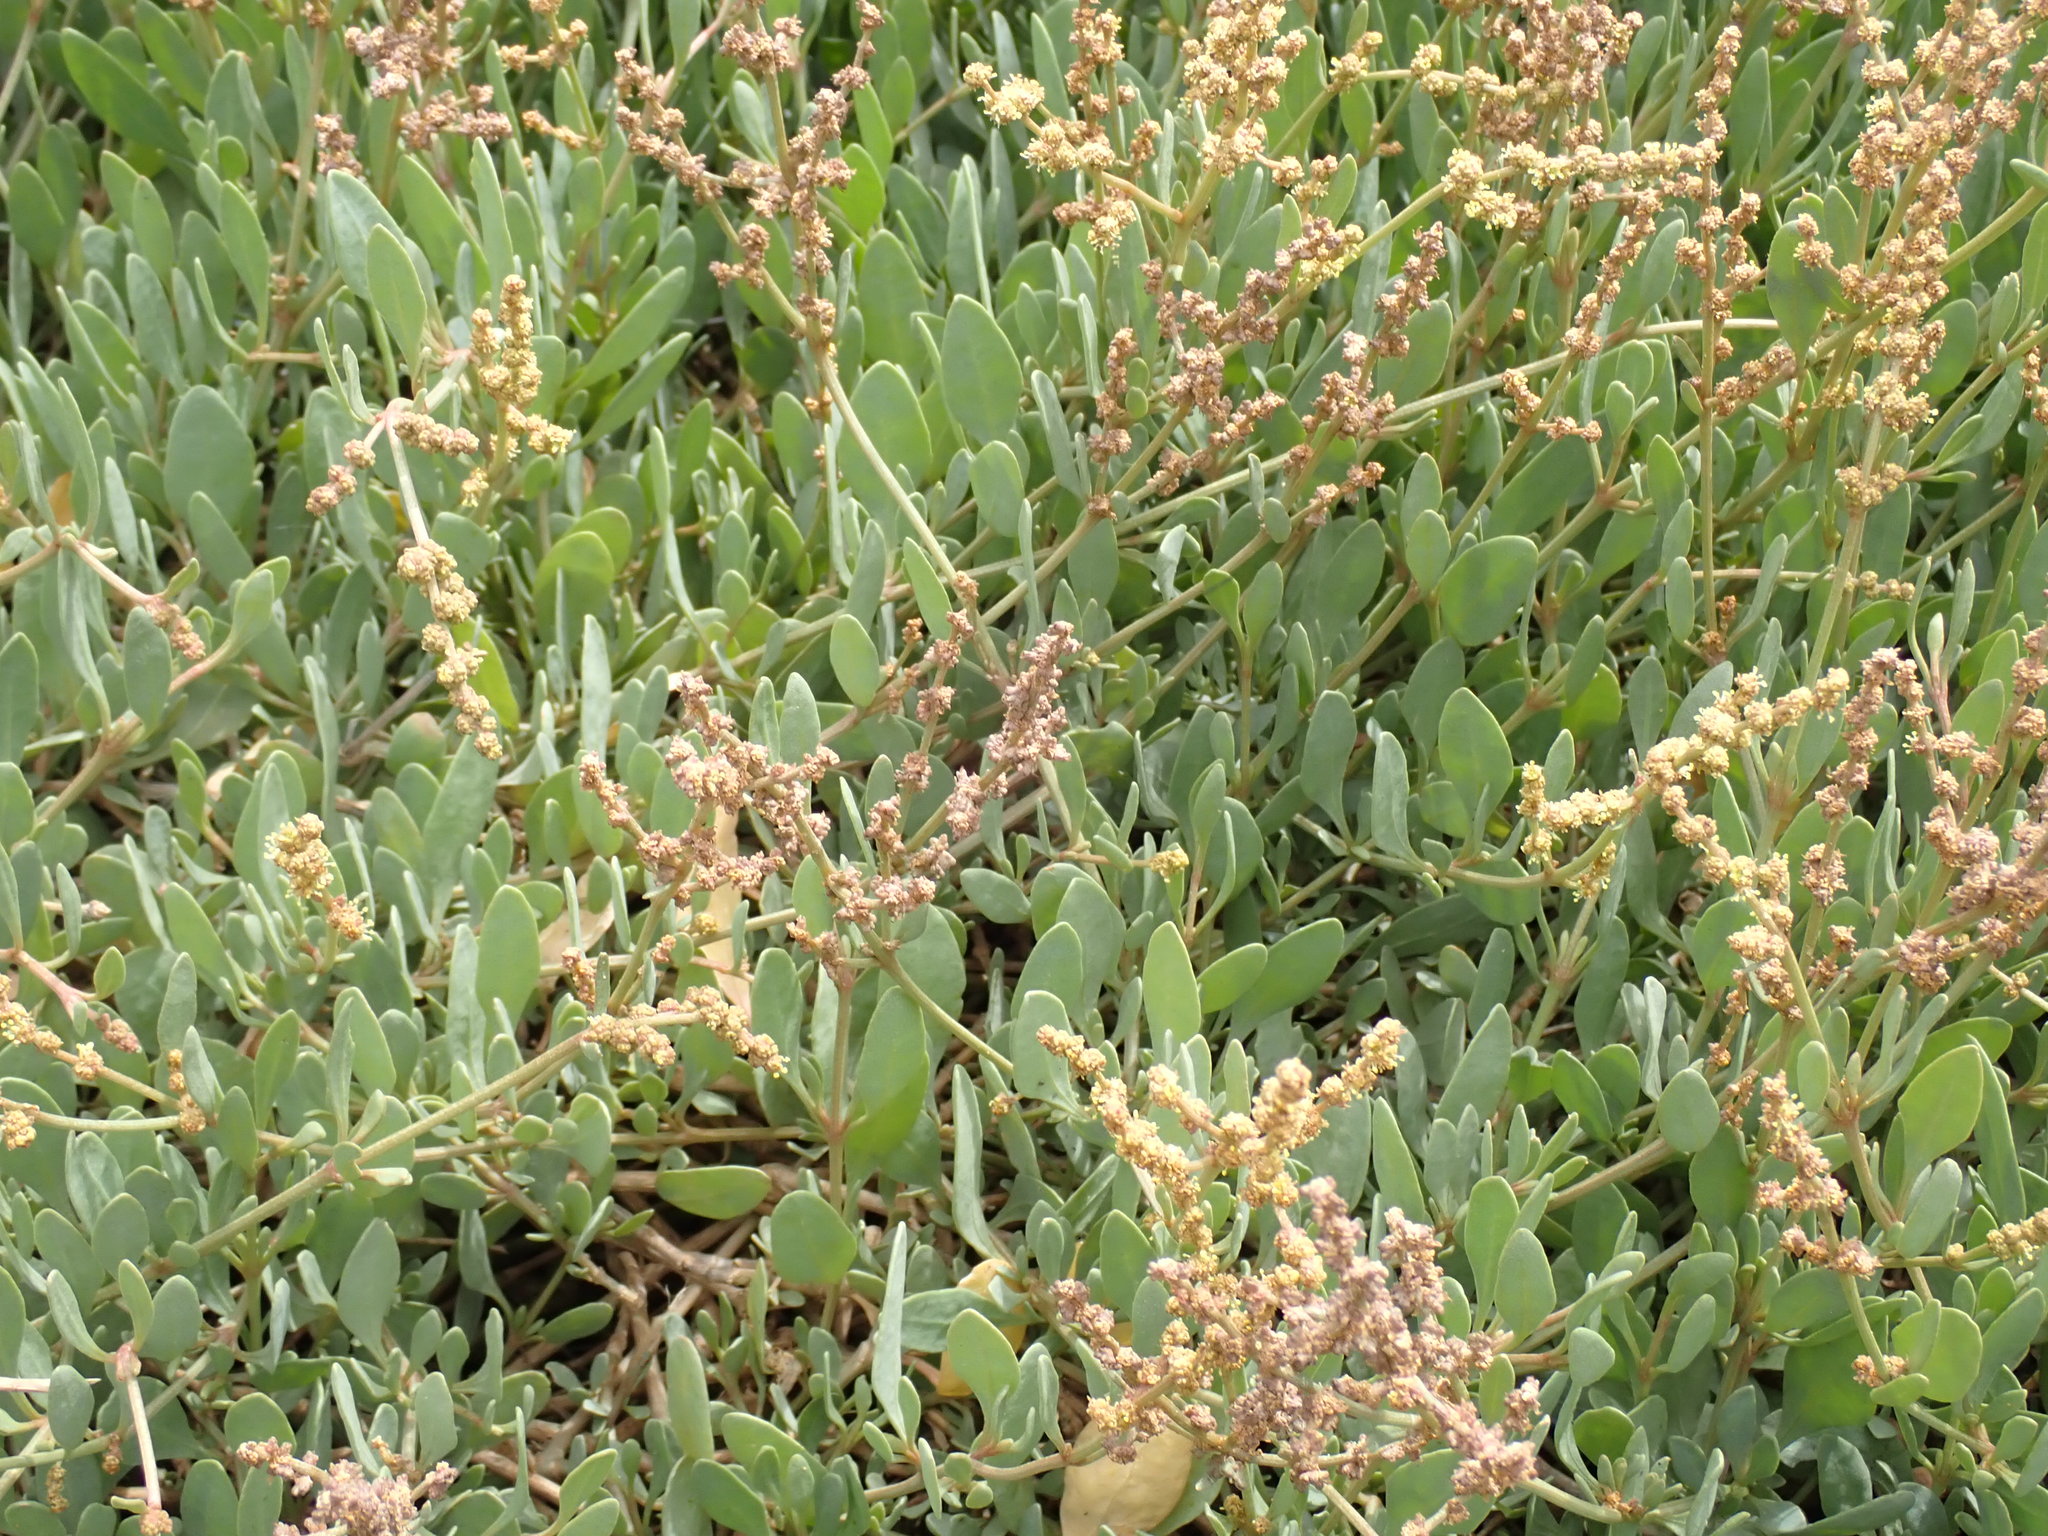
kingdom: Plantae
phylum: Tracheophyta
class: Magnoliopsida
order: Caryophyllales
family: Amaranthaceae
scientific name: Amaranthaceae
